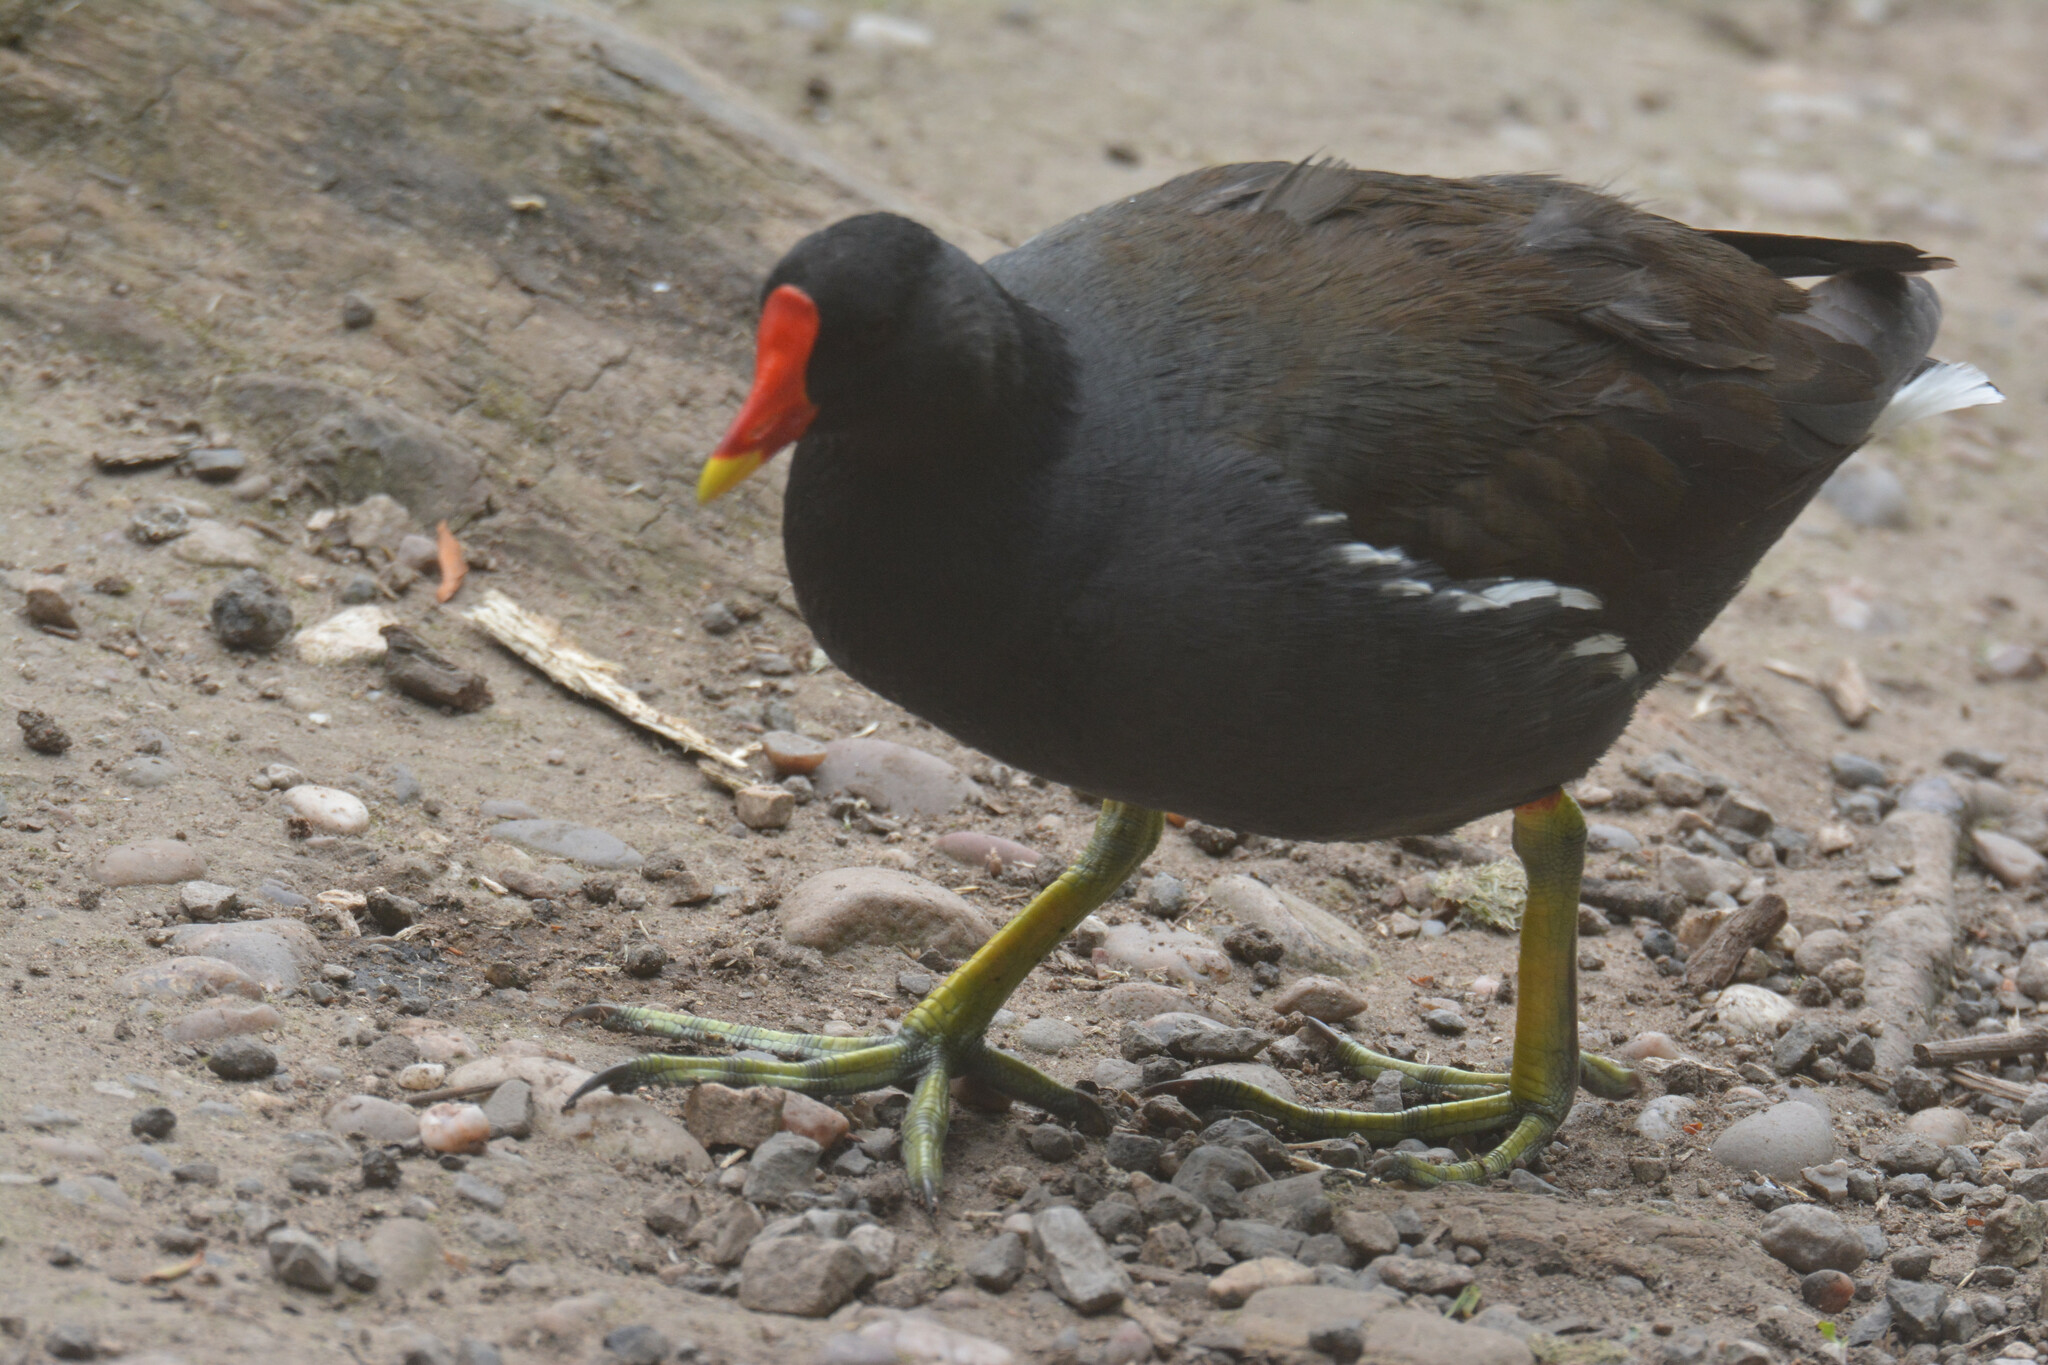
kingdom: Animalia
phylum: Chordata
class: Aves
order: Gruiformes
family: Rallidae
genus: Gallinula
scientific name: Gallinula chloropus
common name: Common moorhen
